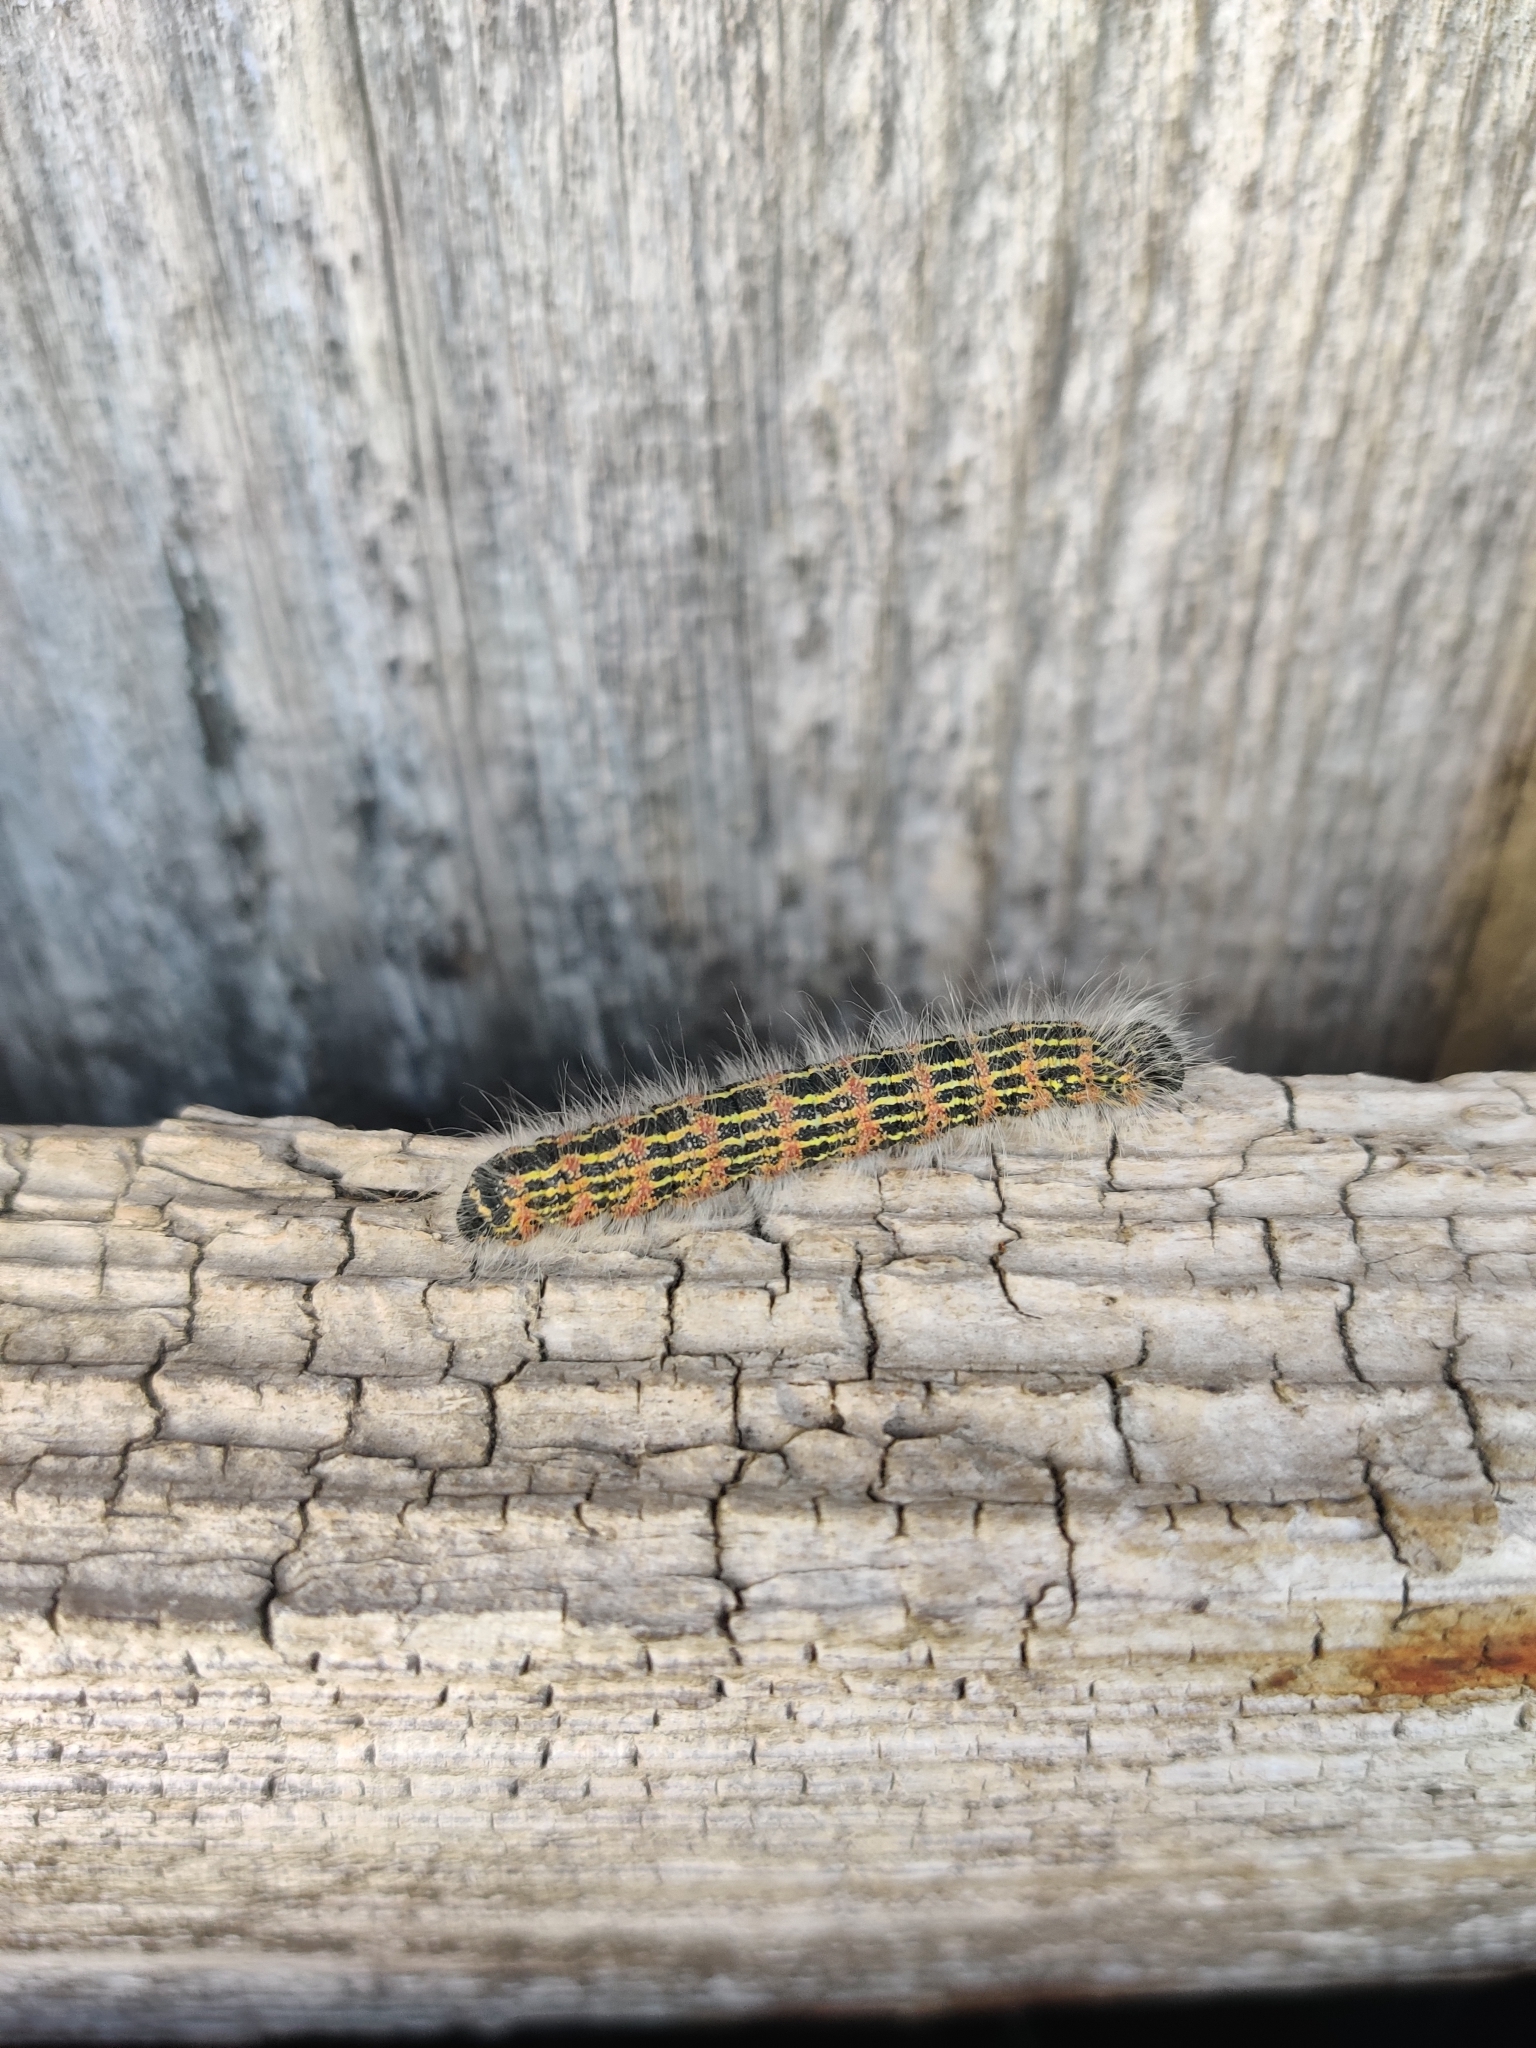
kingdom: Animalia
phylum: Arthropoda
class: Insecta
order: Lepidoptera
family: Notodontidae
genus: Phalera
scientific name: Phalera bucephala
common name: Buff-tip
